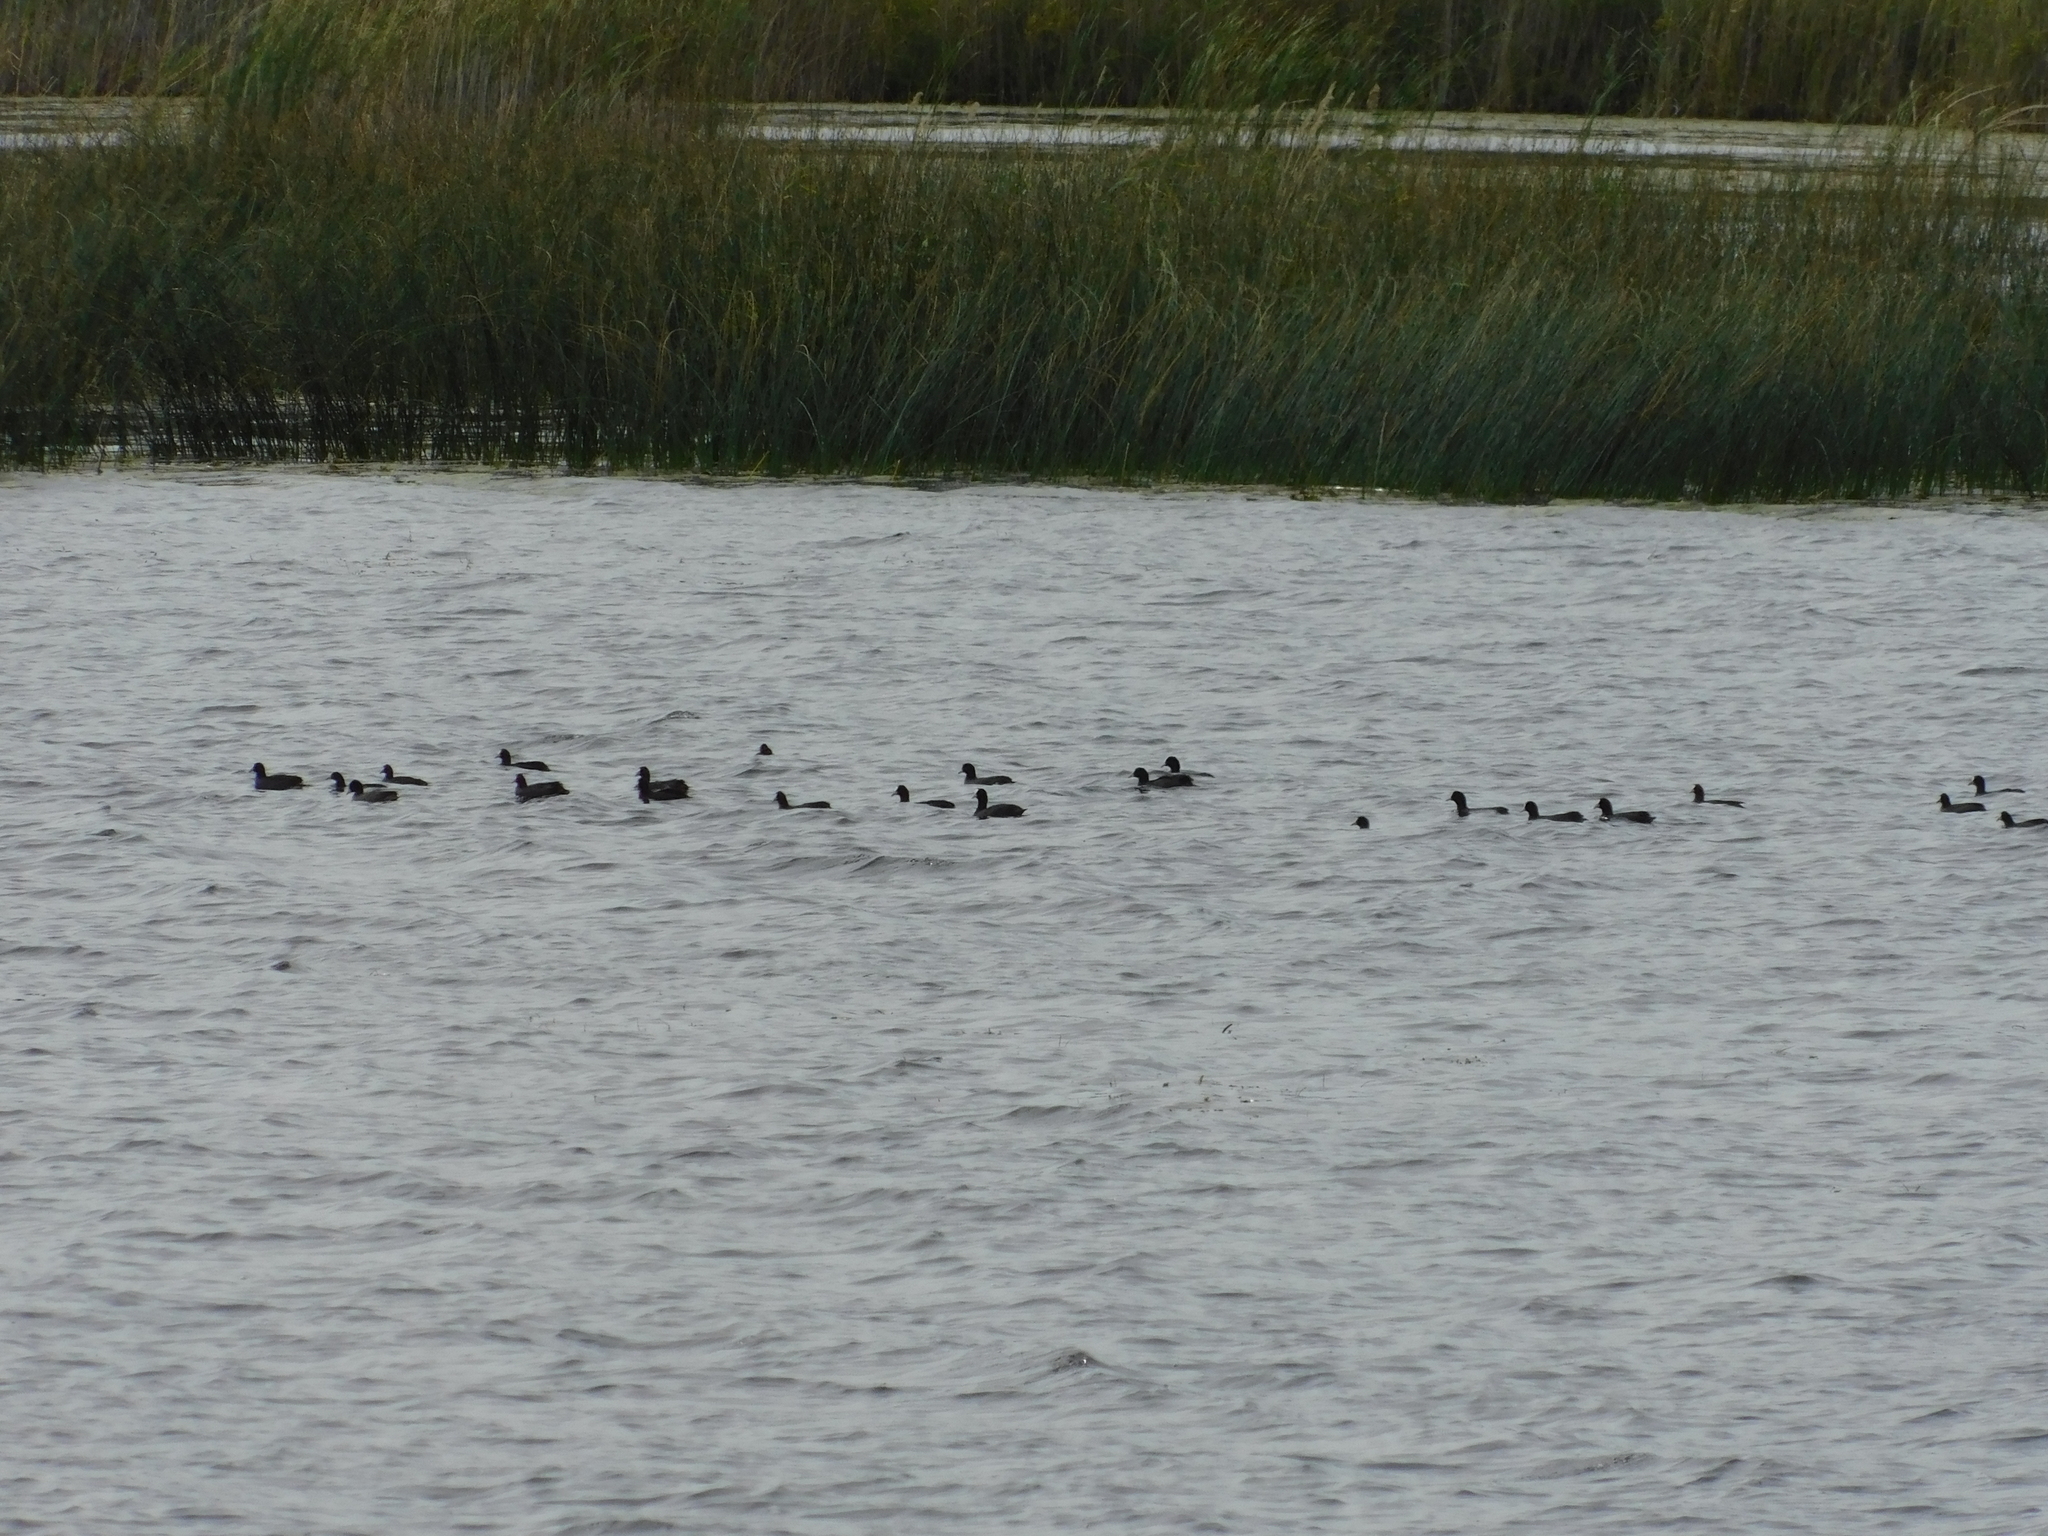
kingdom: Animalia
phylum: Chordata
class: Aves
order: Gruiformes
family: Rallidae
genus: Fulica
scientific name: Fulica atra
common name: Eurasian coot
